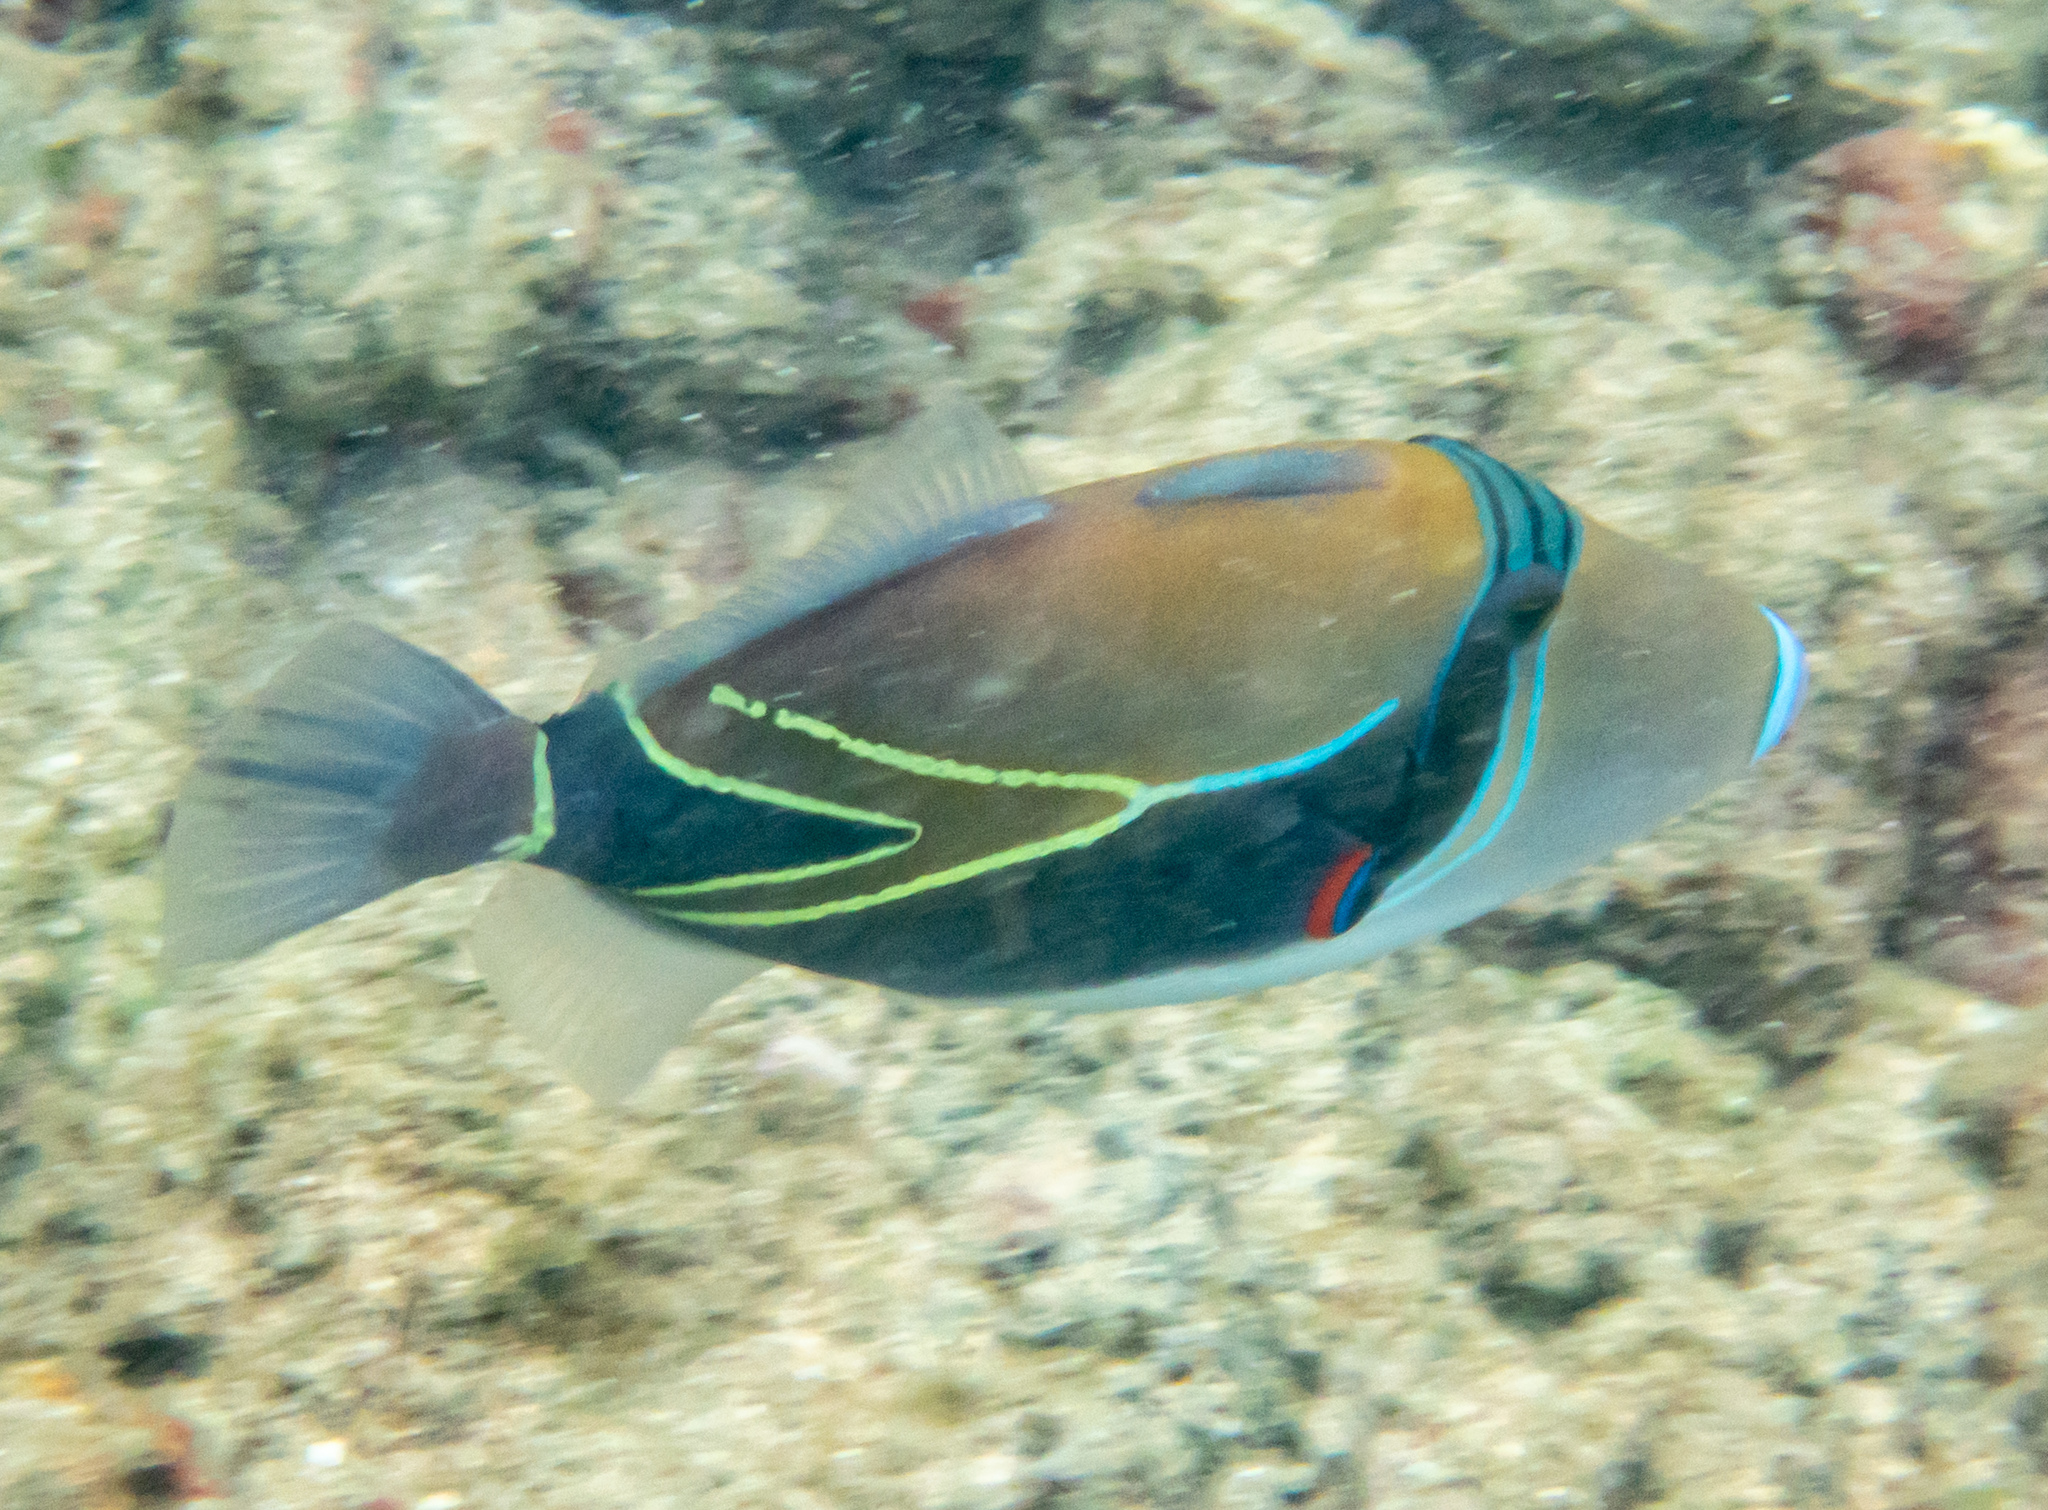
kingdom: Animalia
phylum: Chordata
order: Tetraodontiformes
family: Balistidae
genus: Rhinecanthus
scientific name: Rhinecanthus rectangulus
